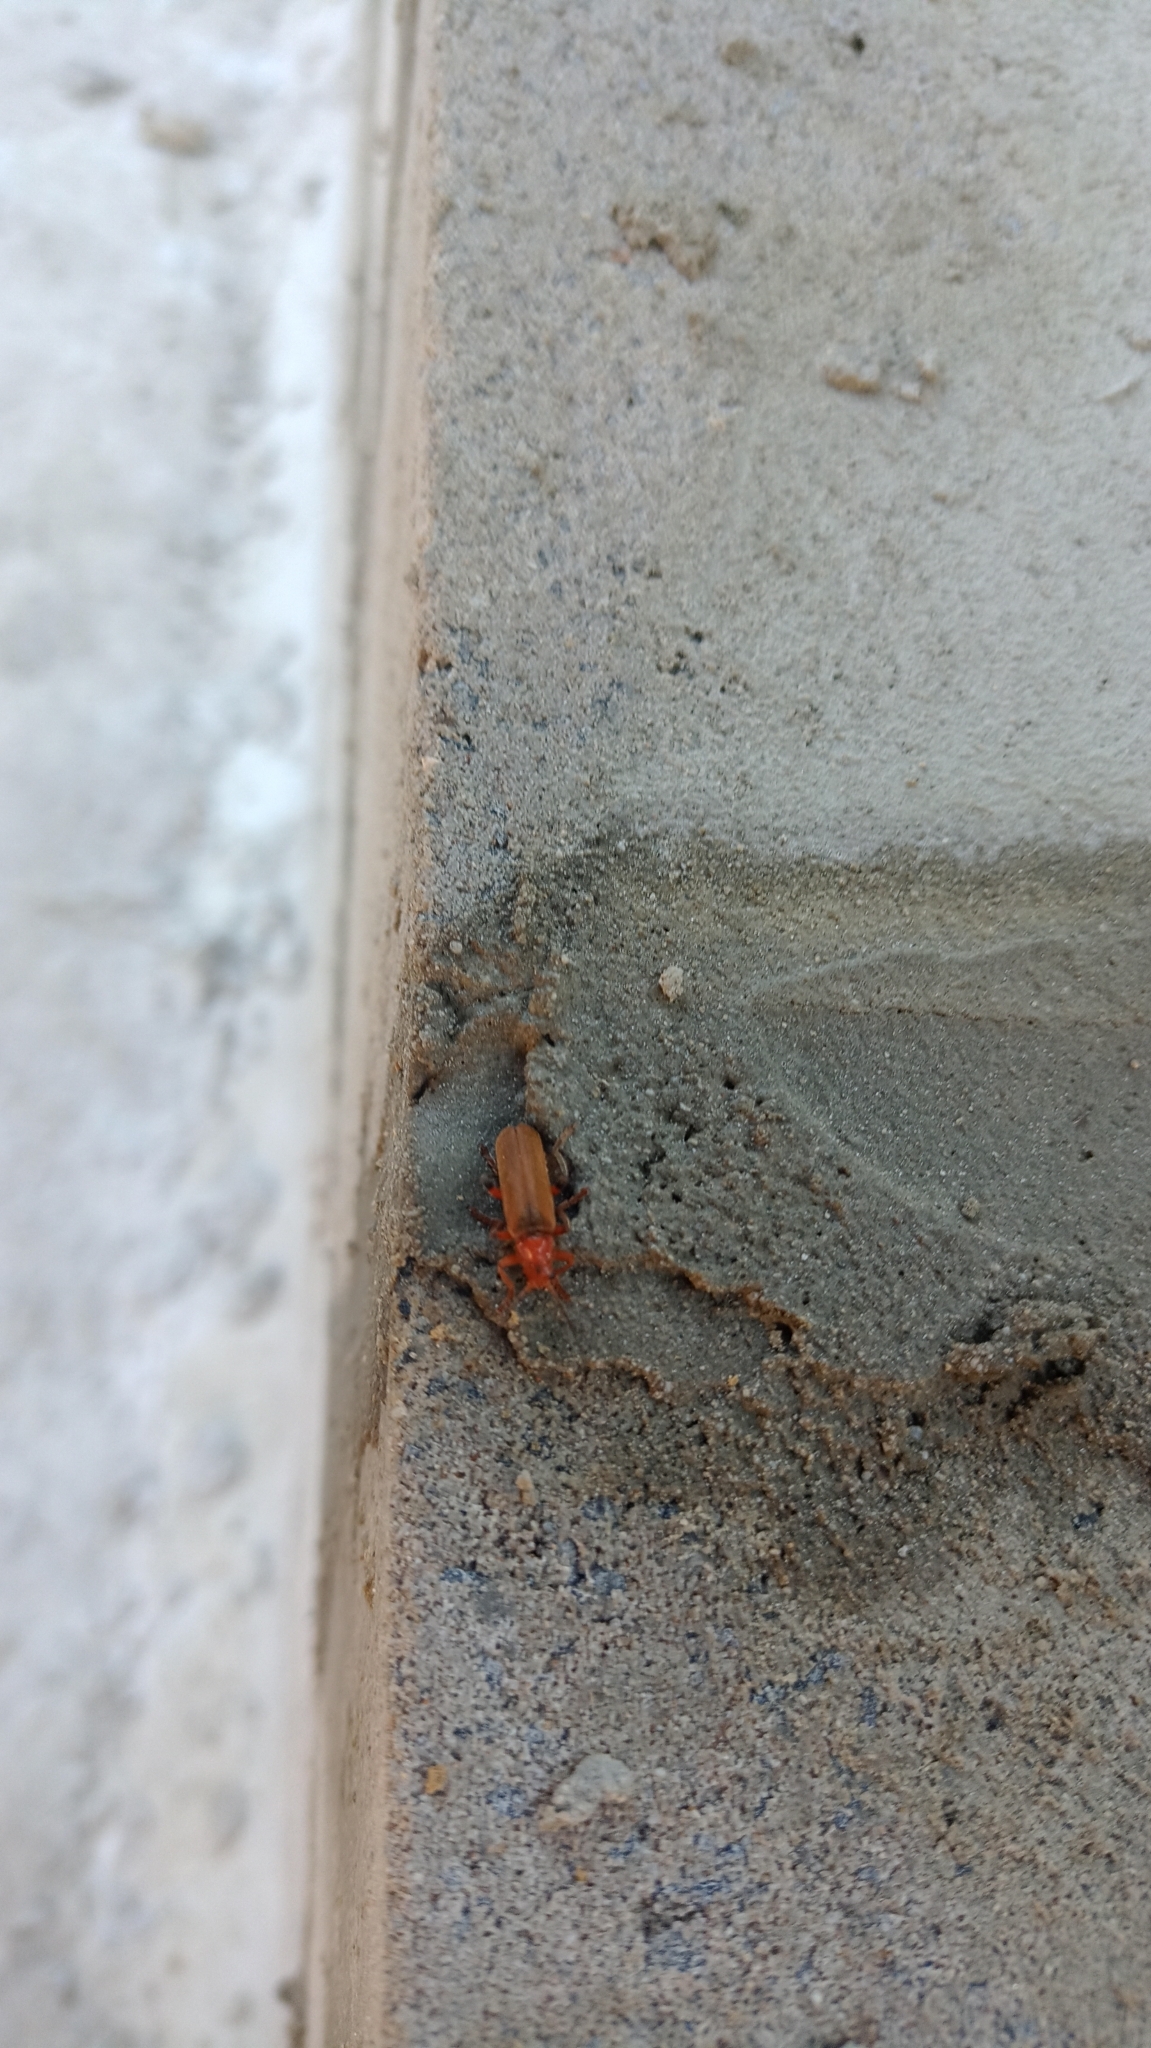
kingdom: Animalia
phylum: Arthropoda
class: Insecta
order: Coleoptera
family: Cantharidae
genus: Cantharis
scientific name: Cantharis livida
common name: Livid soldier beetle
